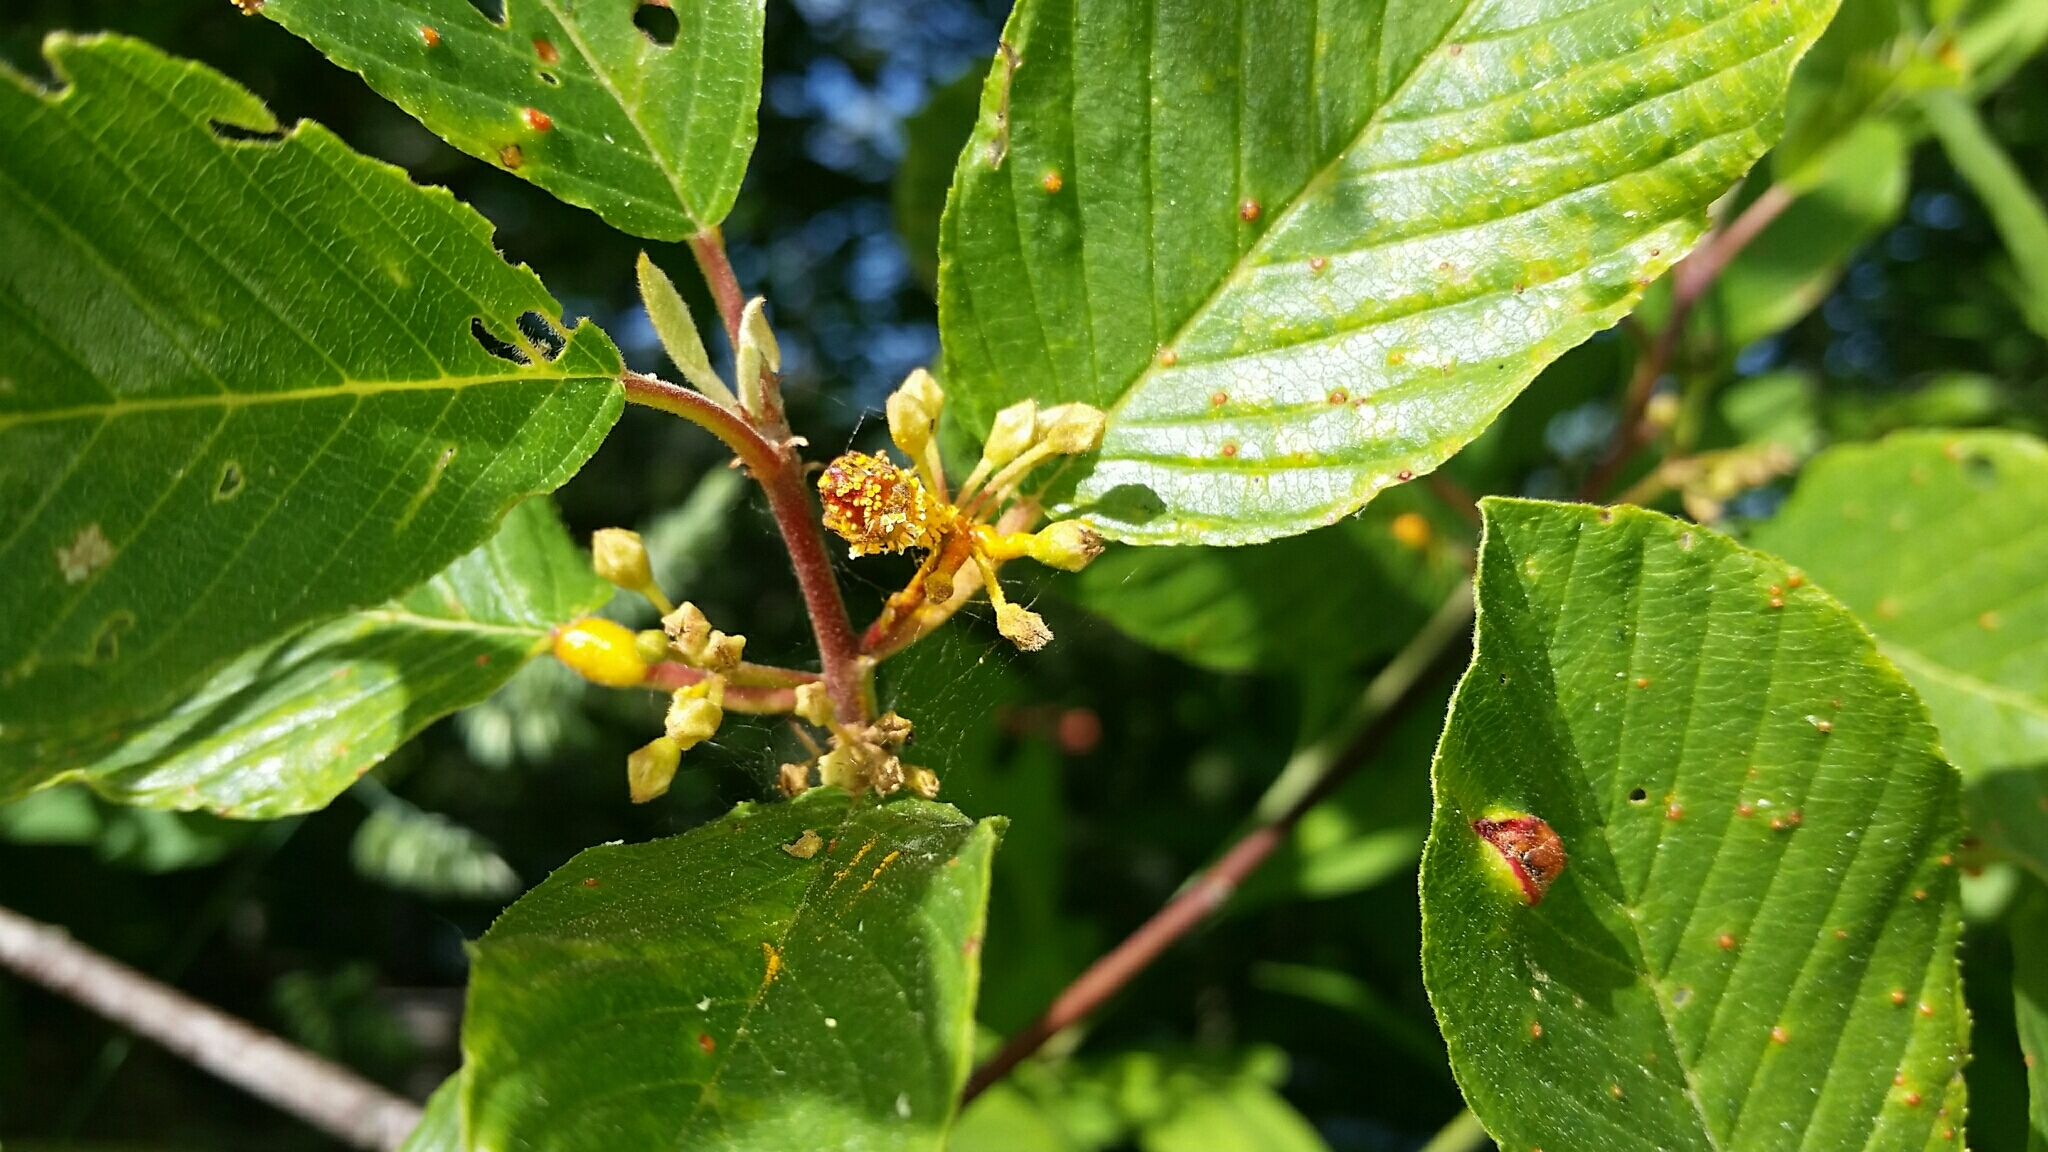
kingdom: Plantae
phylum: Tracheophyta
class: Magnoliopsida
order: Rosales
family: Rhamnaceae
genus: Frangula
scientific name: Frangula purshiana
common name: Cascara buckthorn
